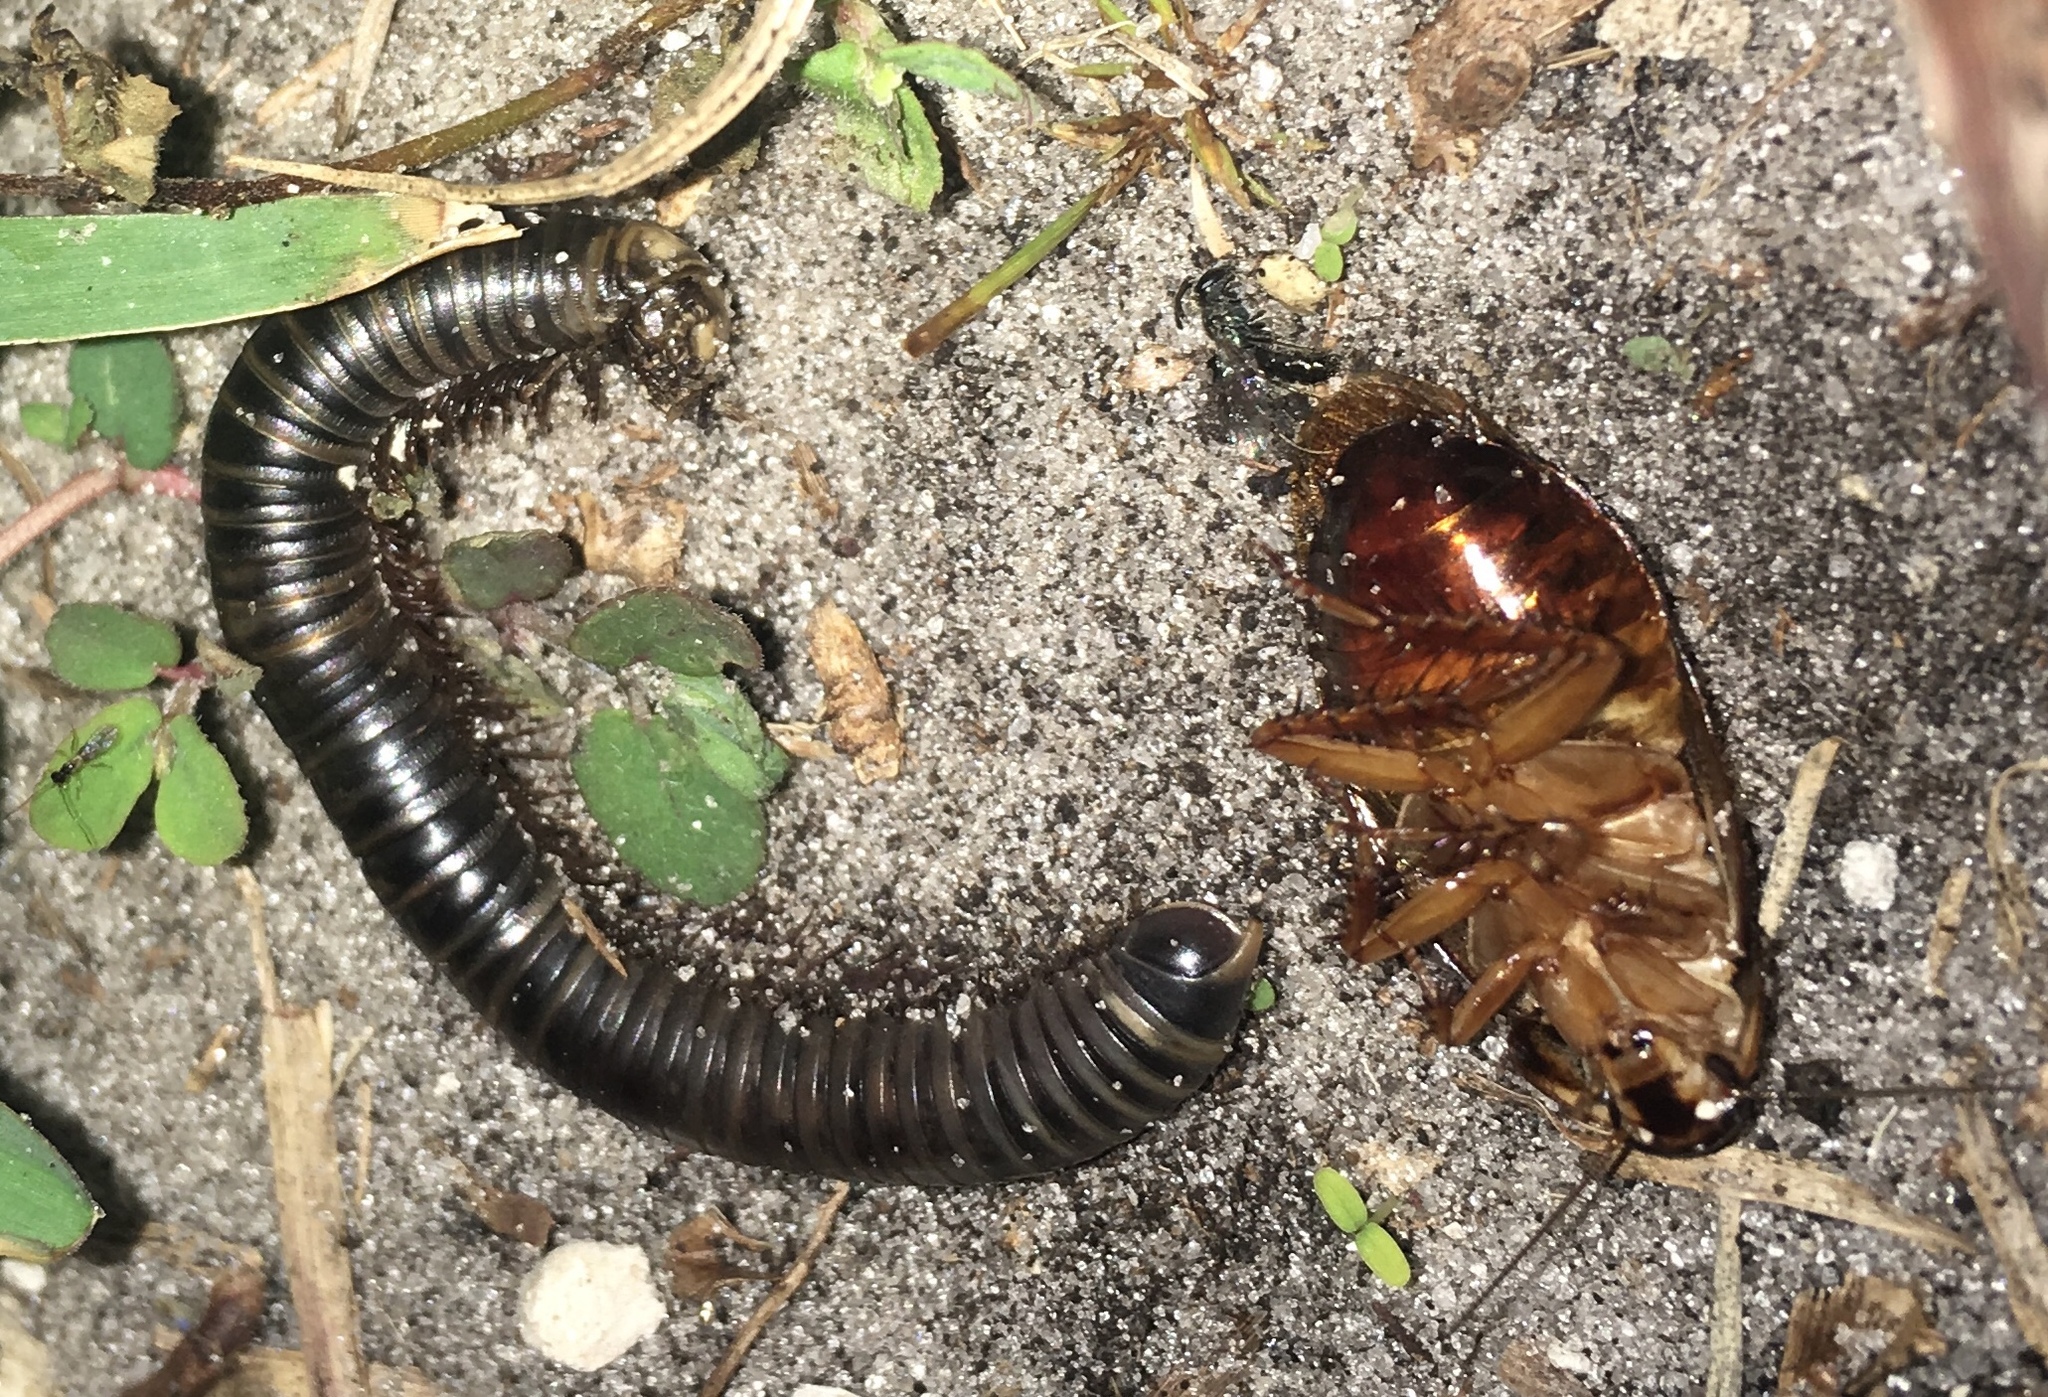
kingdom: Animalia
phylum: Arthropoda
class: Insecta
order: Blattodea
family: Blaberidae
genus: Pycnoscelus
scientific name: Pycnoscelus surinamensis
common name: Surinam cockroach
